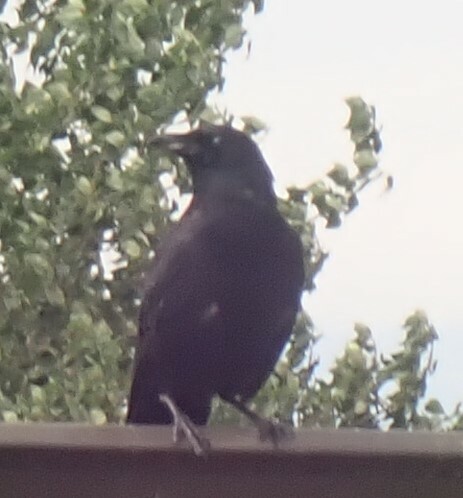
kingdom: Animalia
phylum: Chordata
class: Aves
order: Passeriformes
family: Corvidae
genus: Corvus
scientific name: Corvus brachyrhynchos
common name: American crow
